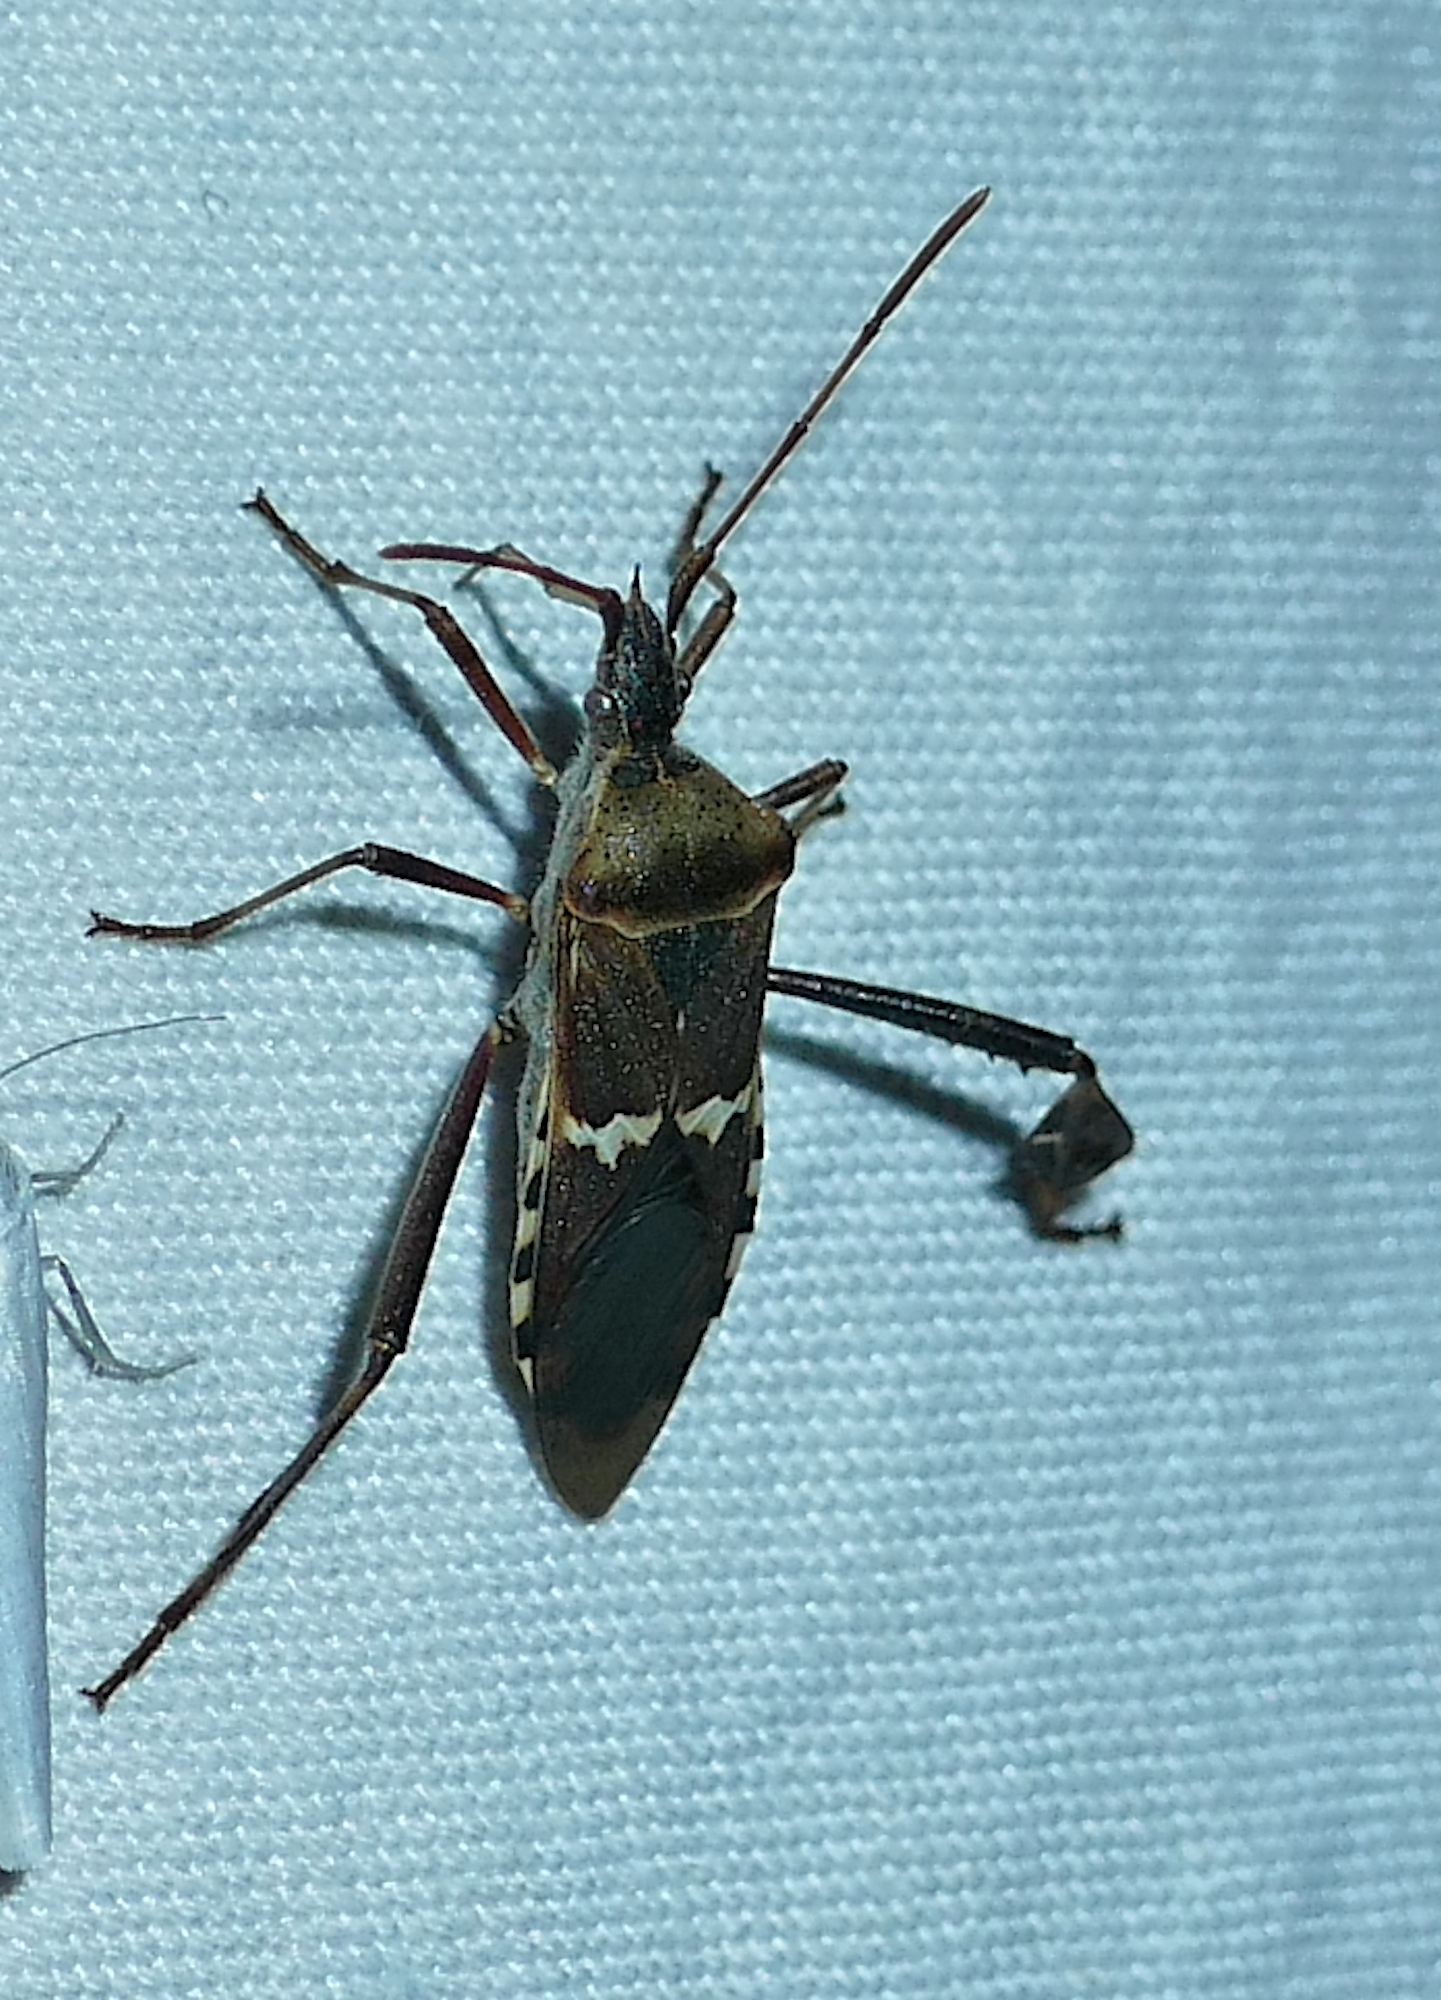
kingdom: Animalia
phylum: Arthropoda
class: Insecta
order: Hemiptera
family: Coreidae
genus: Leptoglossus
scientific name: Leptoglossus clypealis
